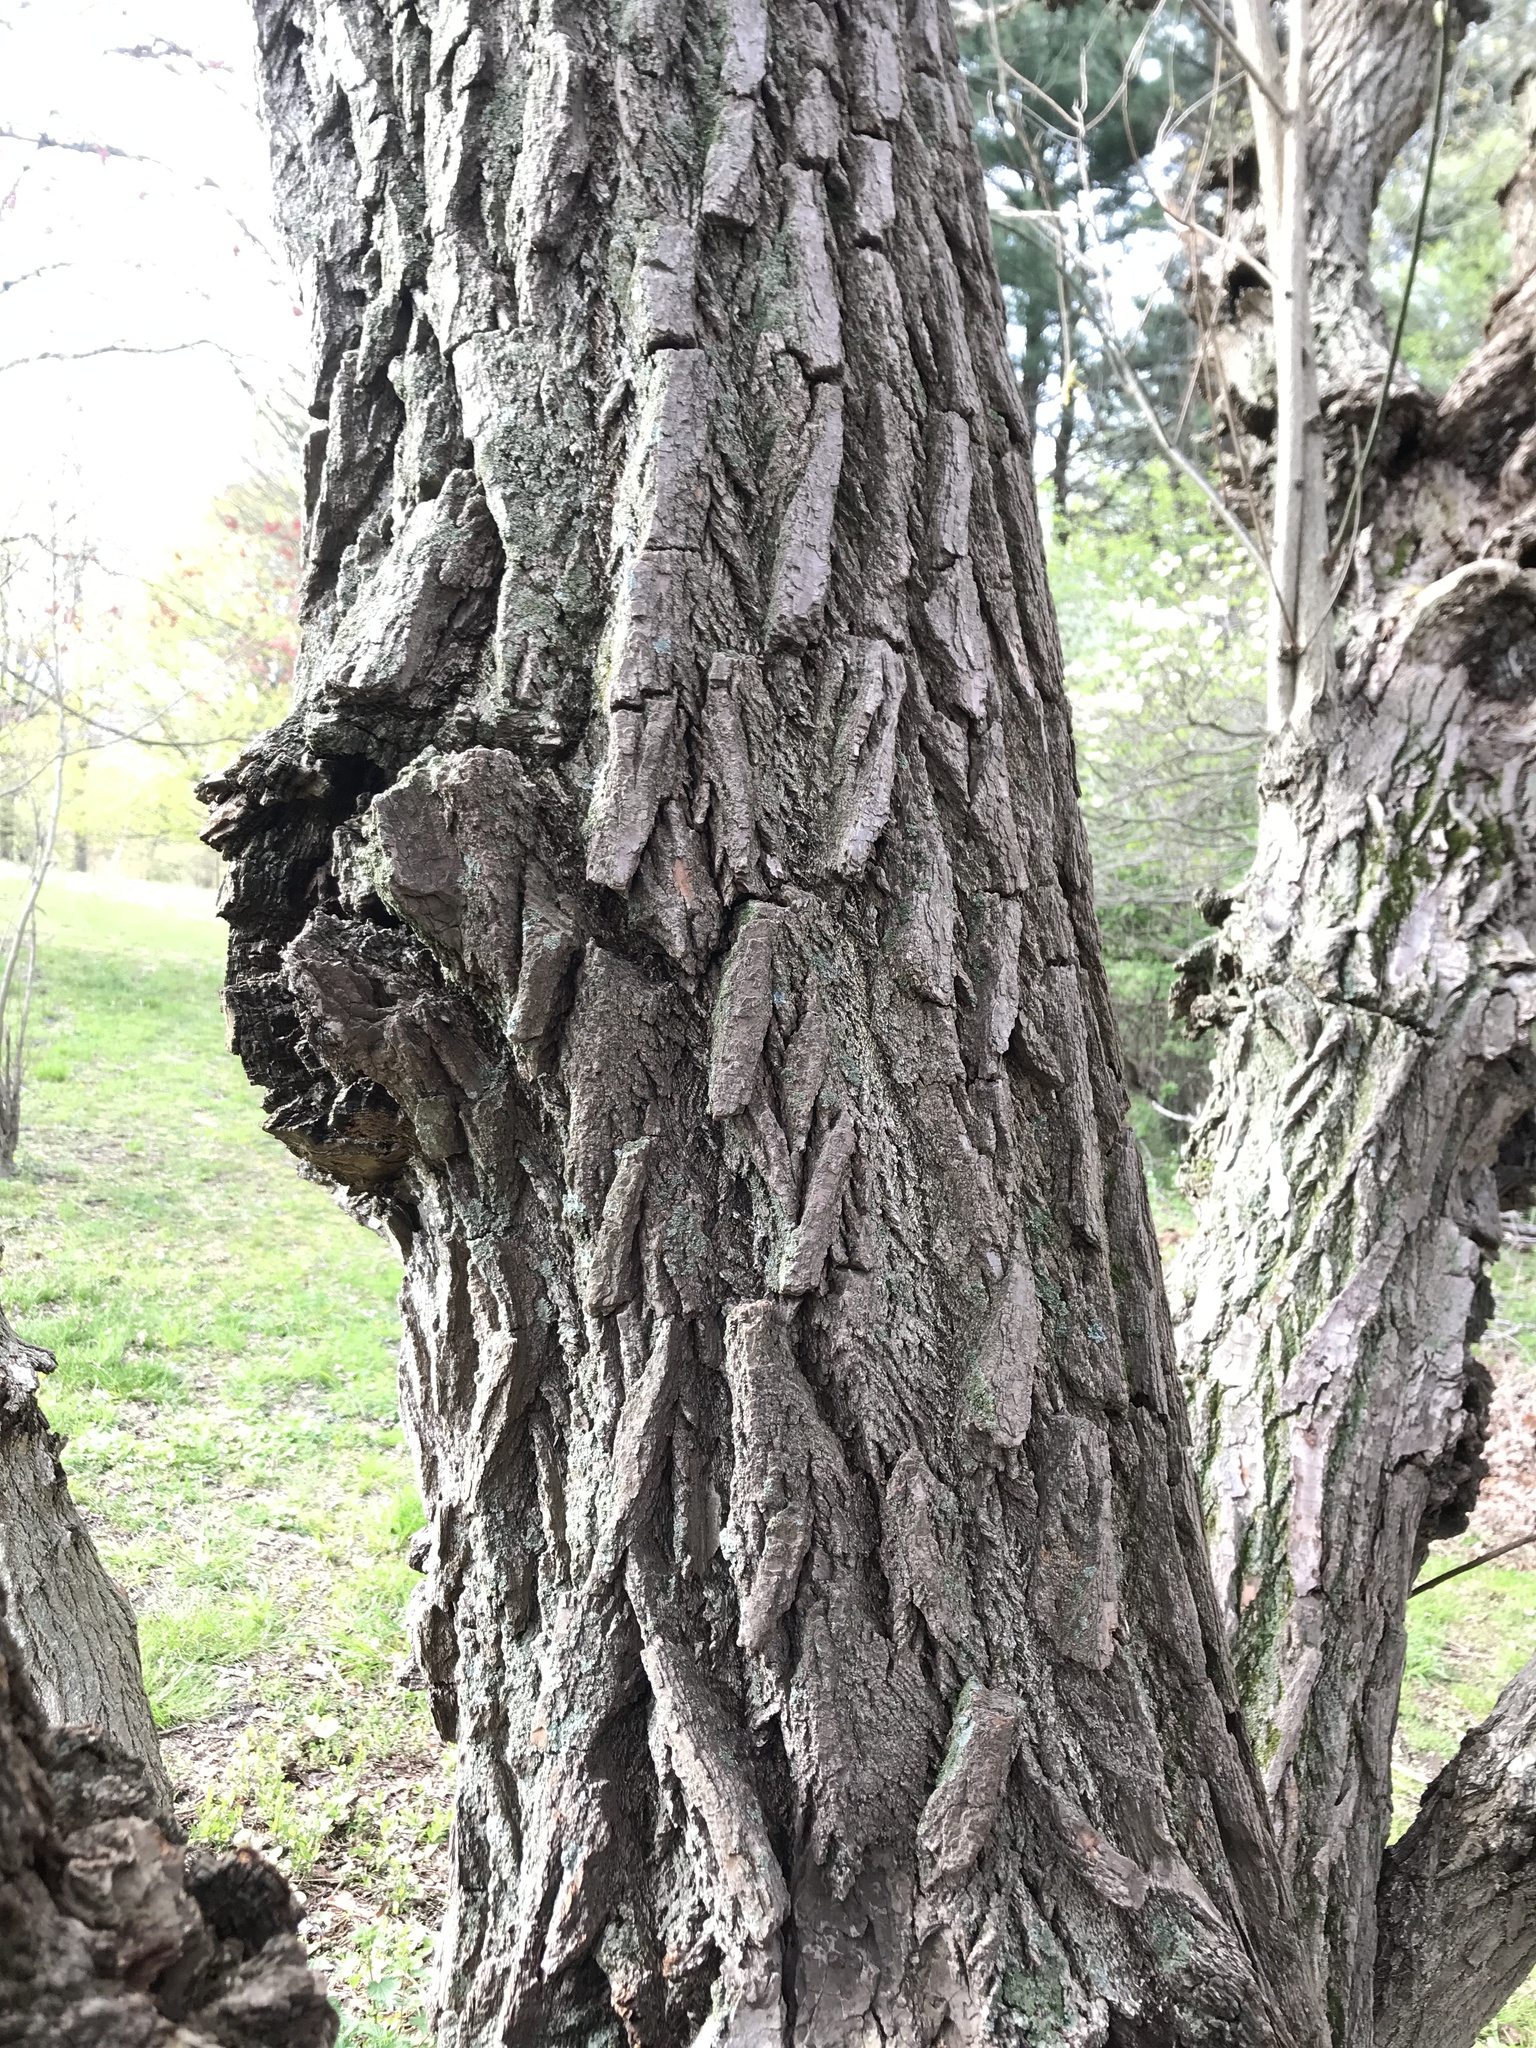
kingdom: Plantae
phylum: Tracheophyta
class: Magnoliopsida
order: Laurales
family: Lauraceae
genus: Sassafras
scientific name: Sassafras albidum
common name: Sassafras
